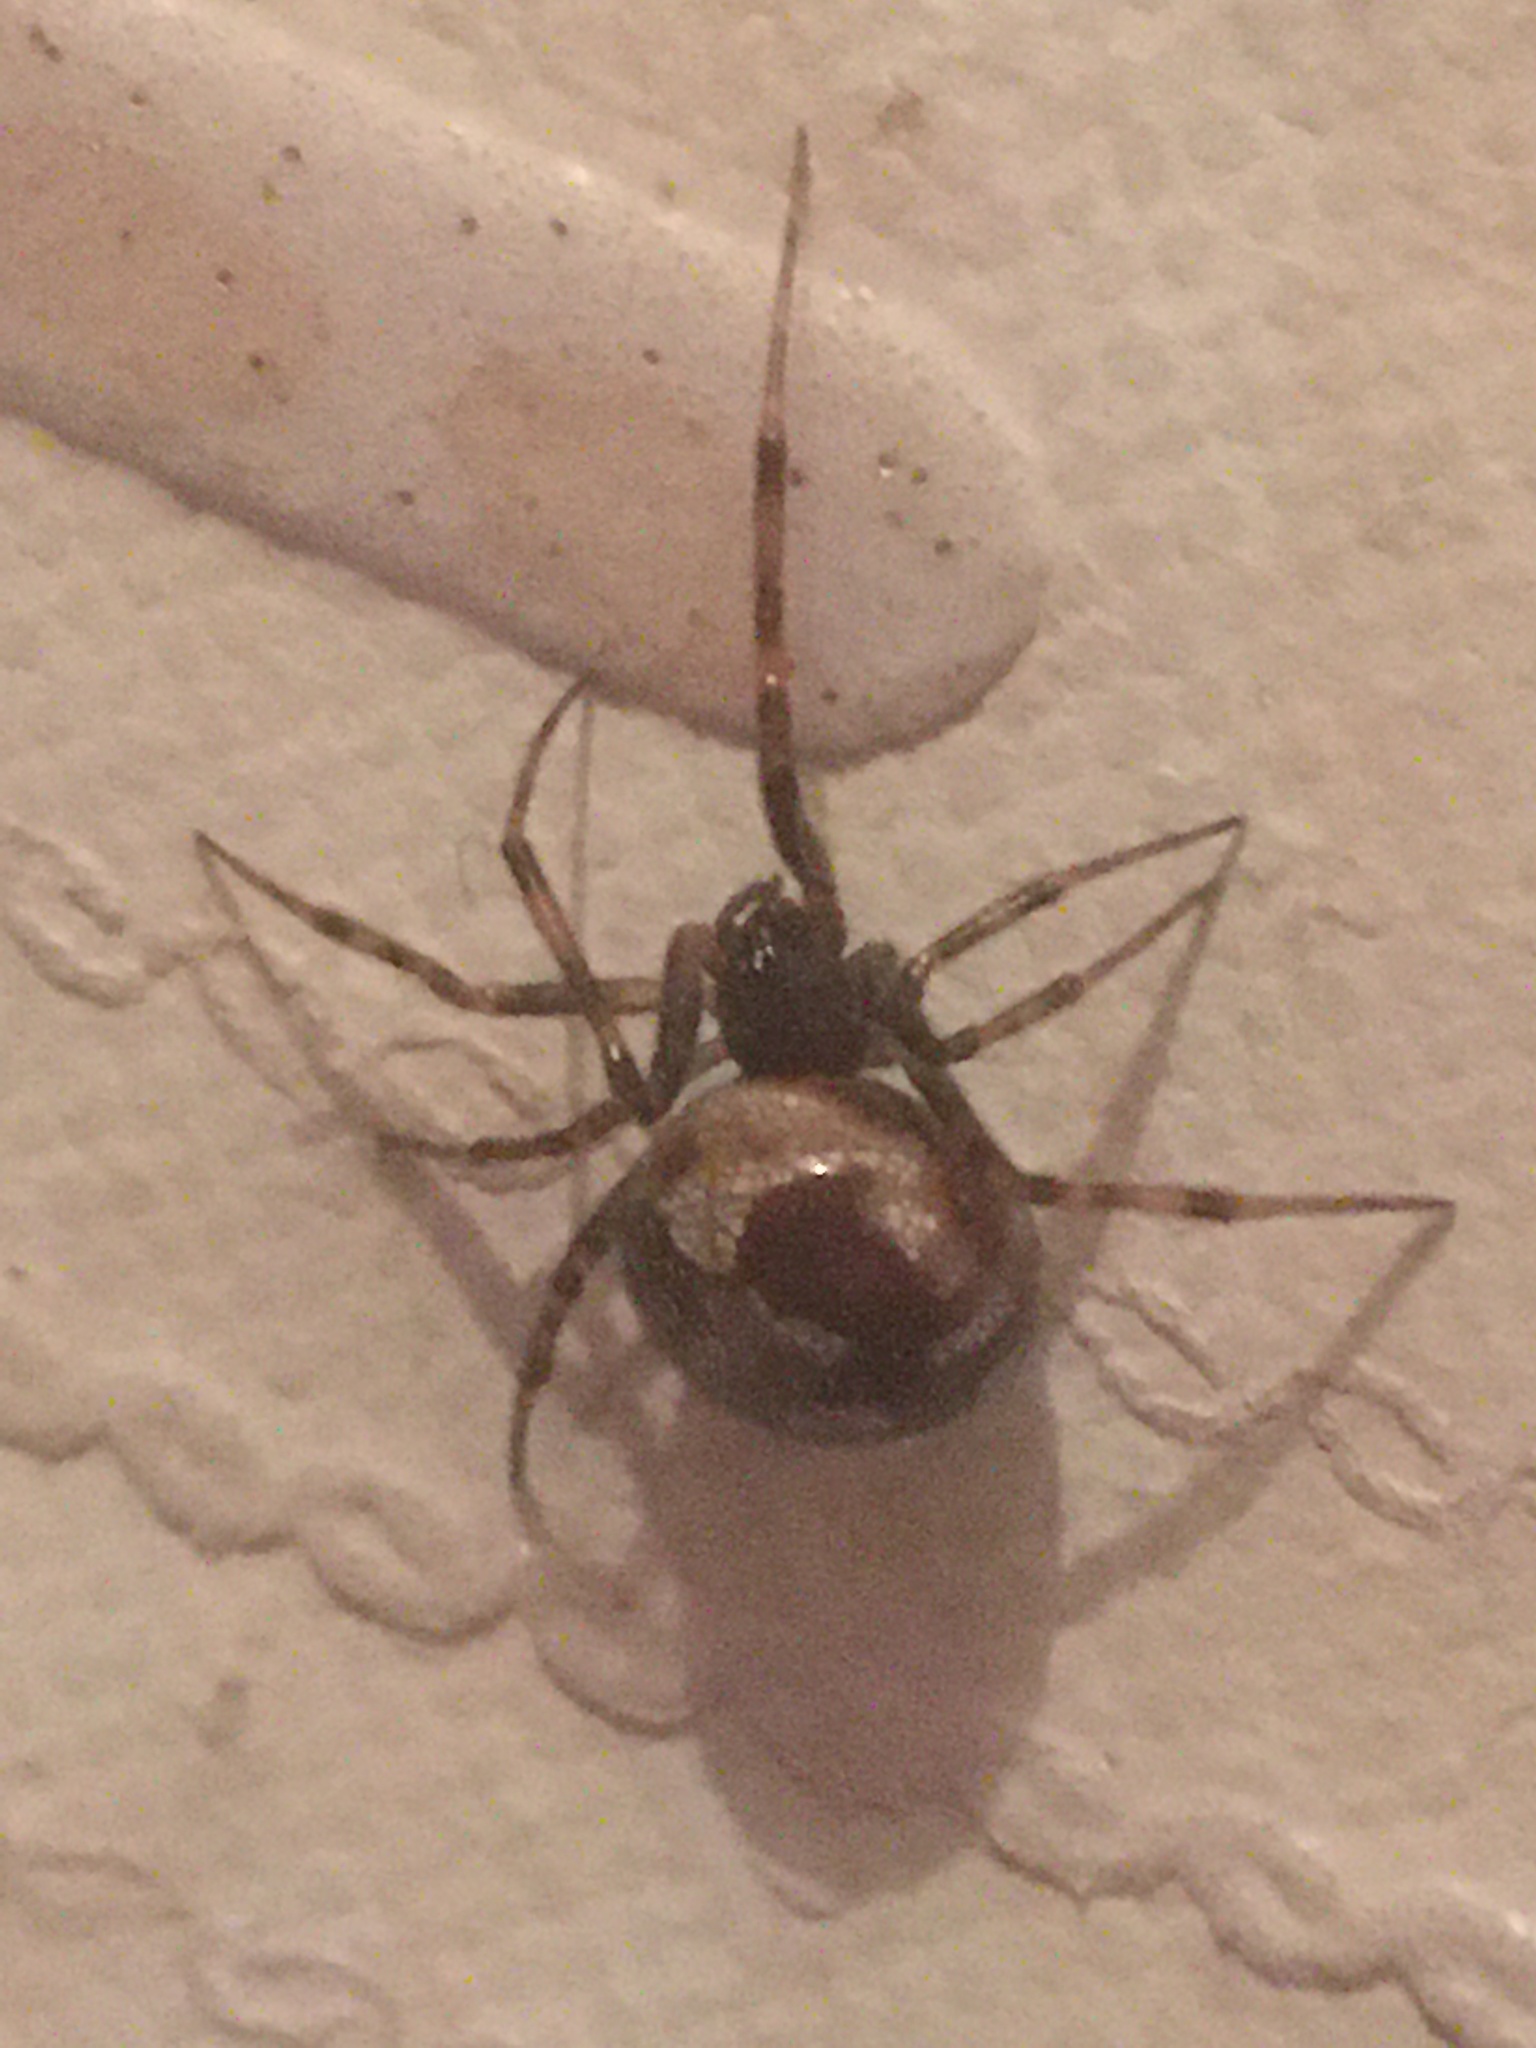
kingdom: Animalia
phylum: Arthropoda
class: Arachnida
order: Araneae
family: Theridiidae
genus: Steatoda
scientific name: Steatoda triangulosa
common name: Triangulate bud spider
